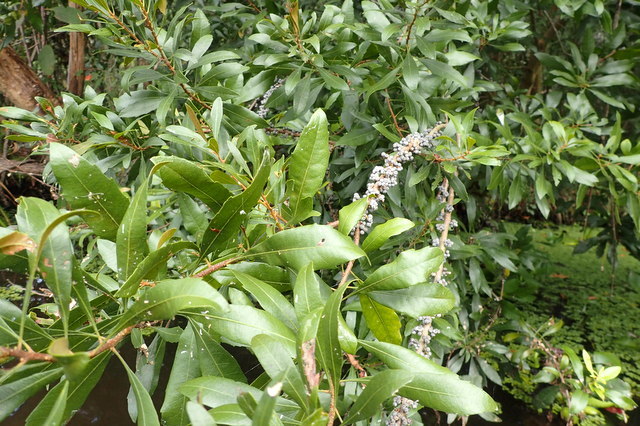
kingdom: Plantae
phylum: Tracheophyta
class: Magnoliopsida
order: Fagales
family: Myricaceae
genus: Morella
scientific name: Morella cerifera
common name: Wax myrtle
